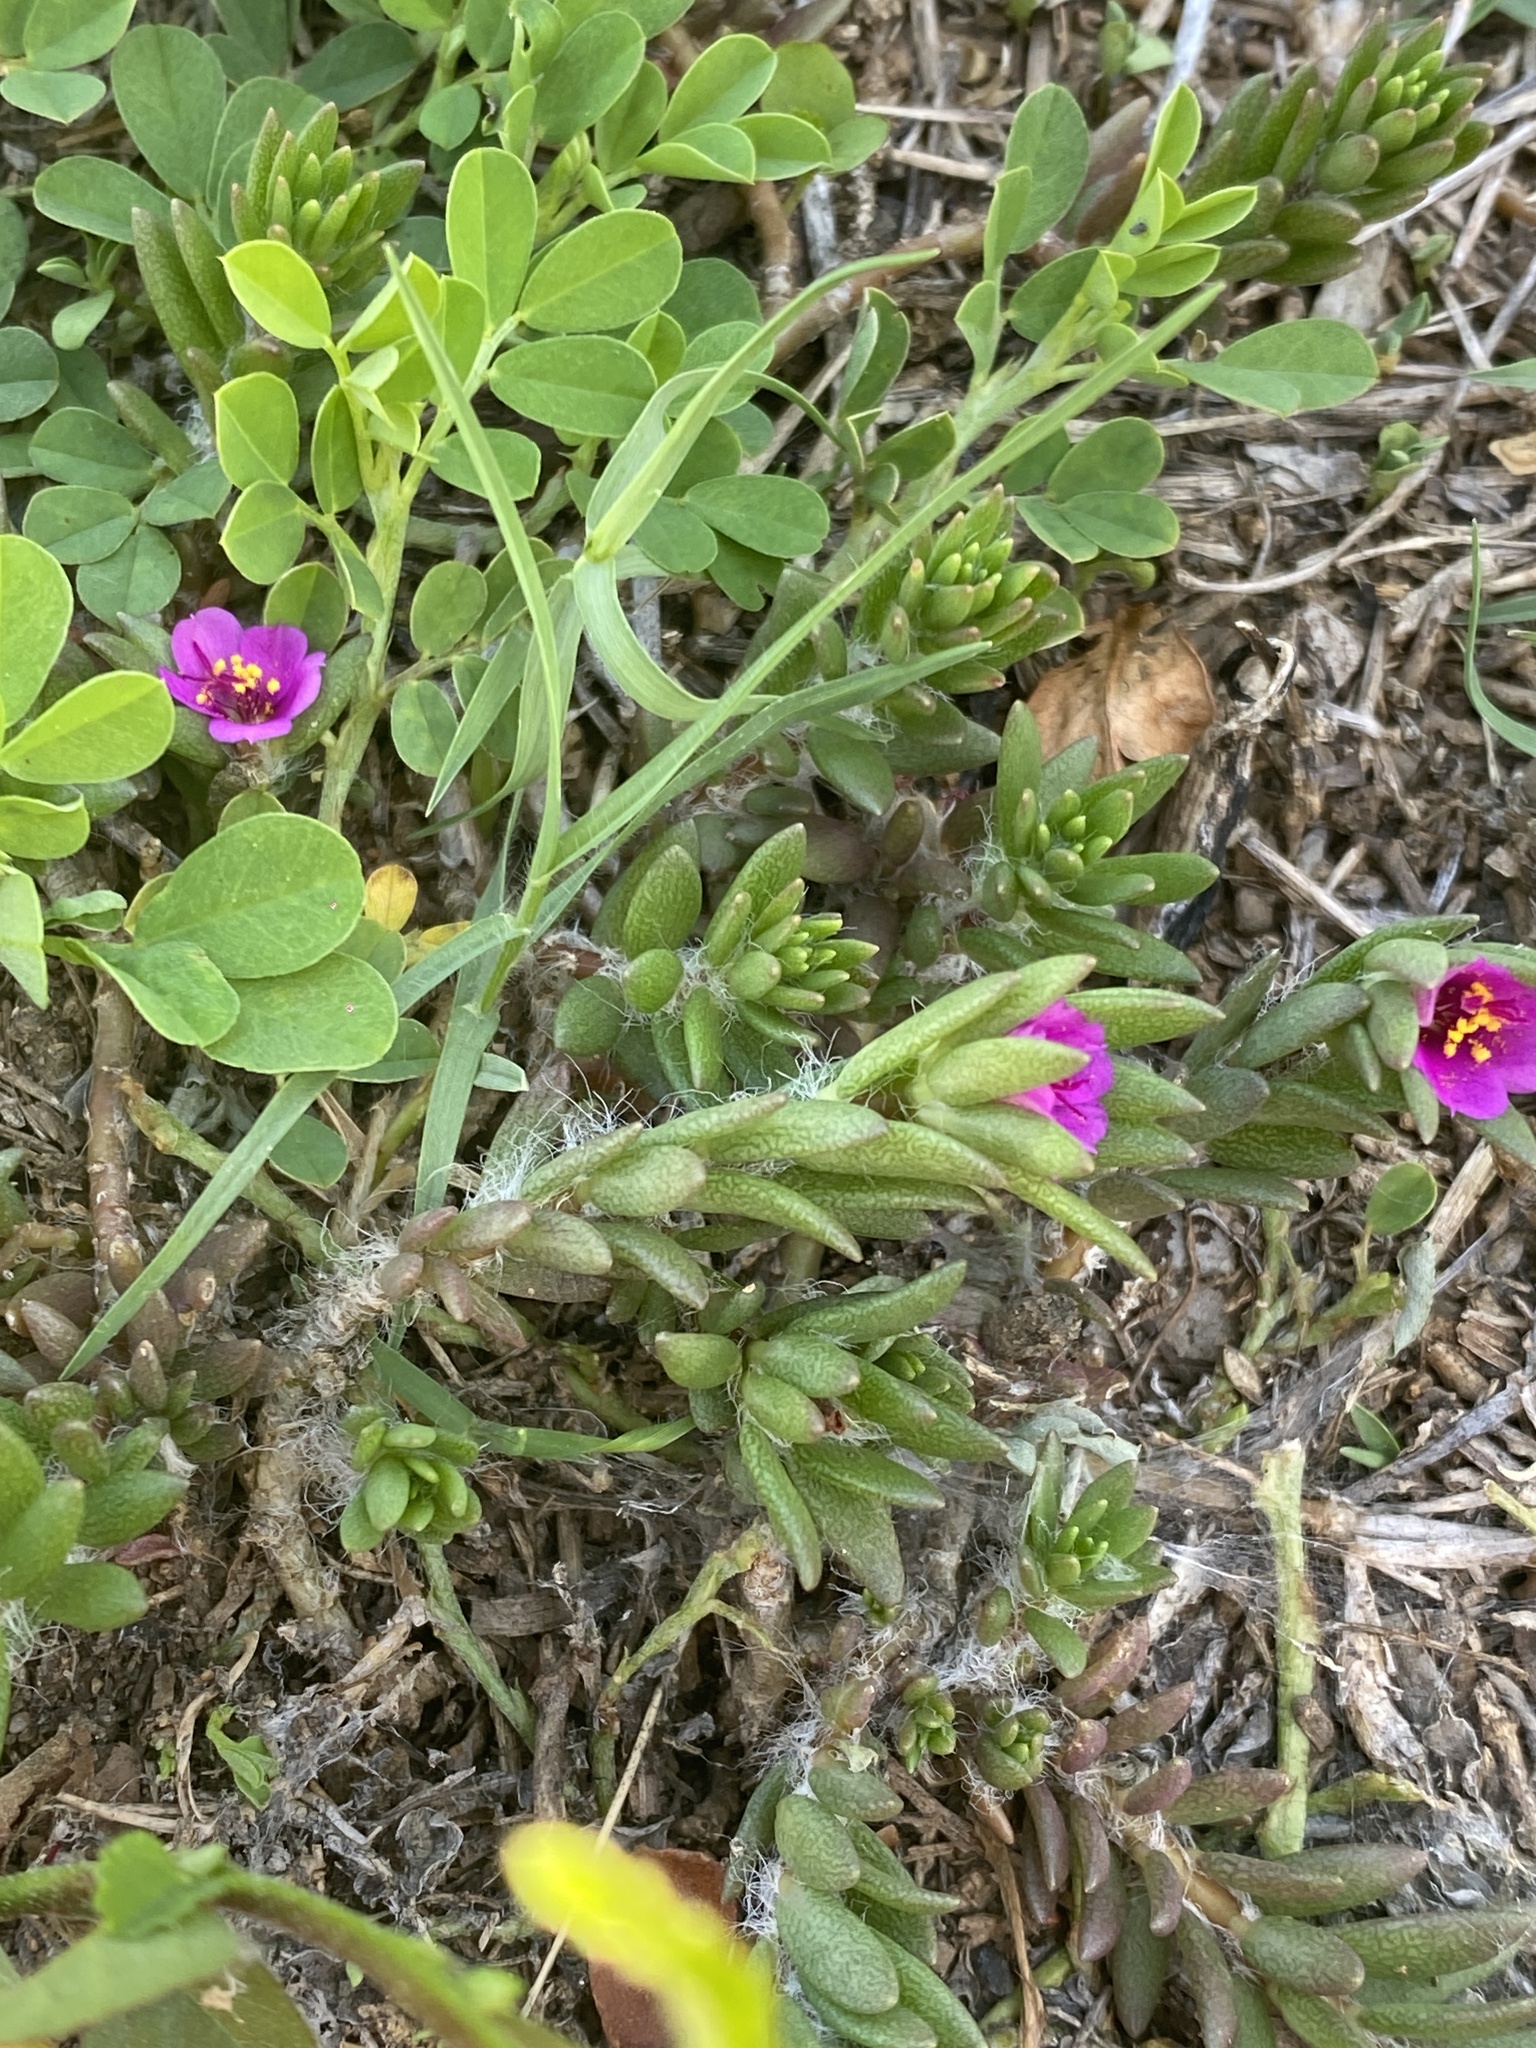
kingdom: Plantae
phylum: Tracheophyta
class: Magnoliopsida
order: Caryophyllales
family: Portulacaceae
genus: Portulaca
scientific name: Portulaca pilosa
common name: Kiss me quick
